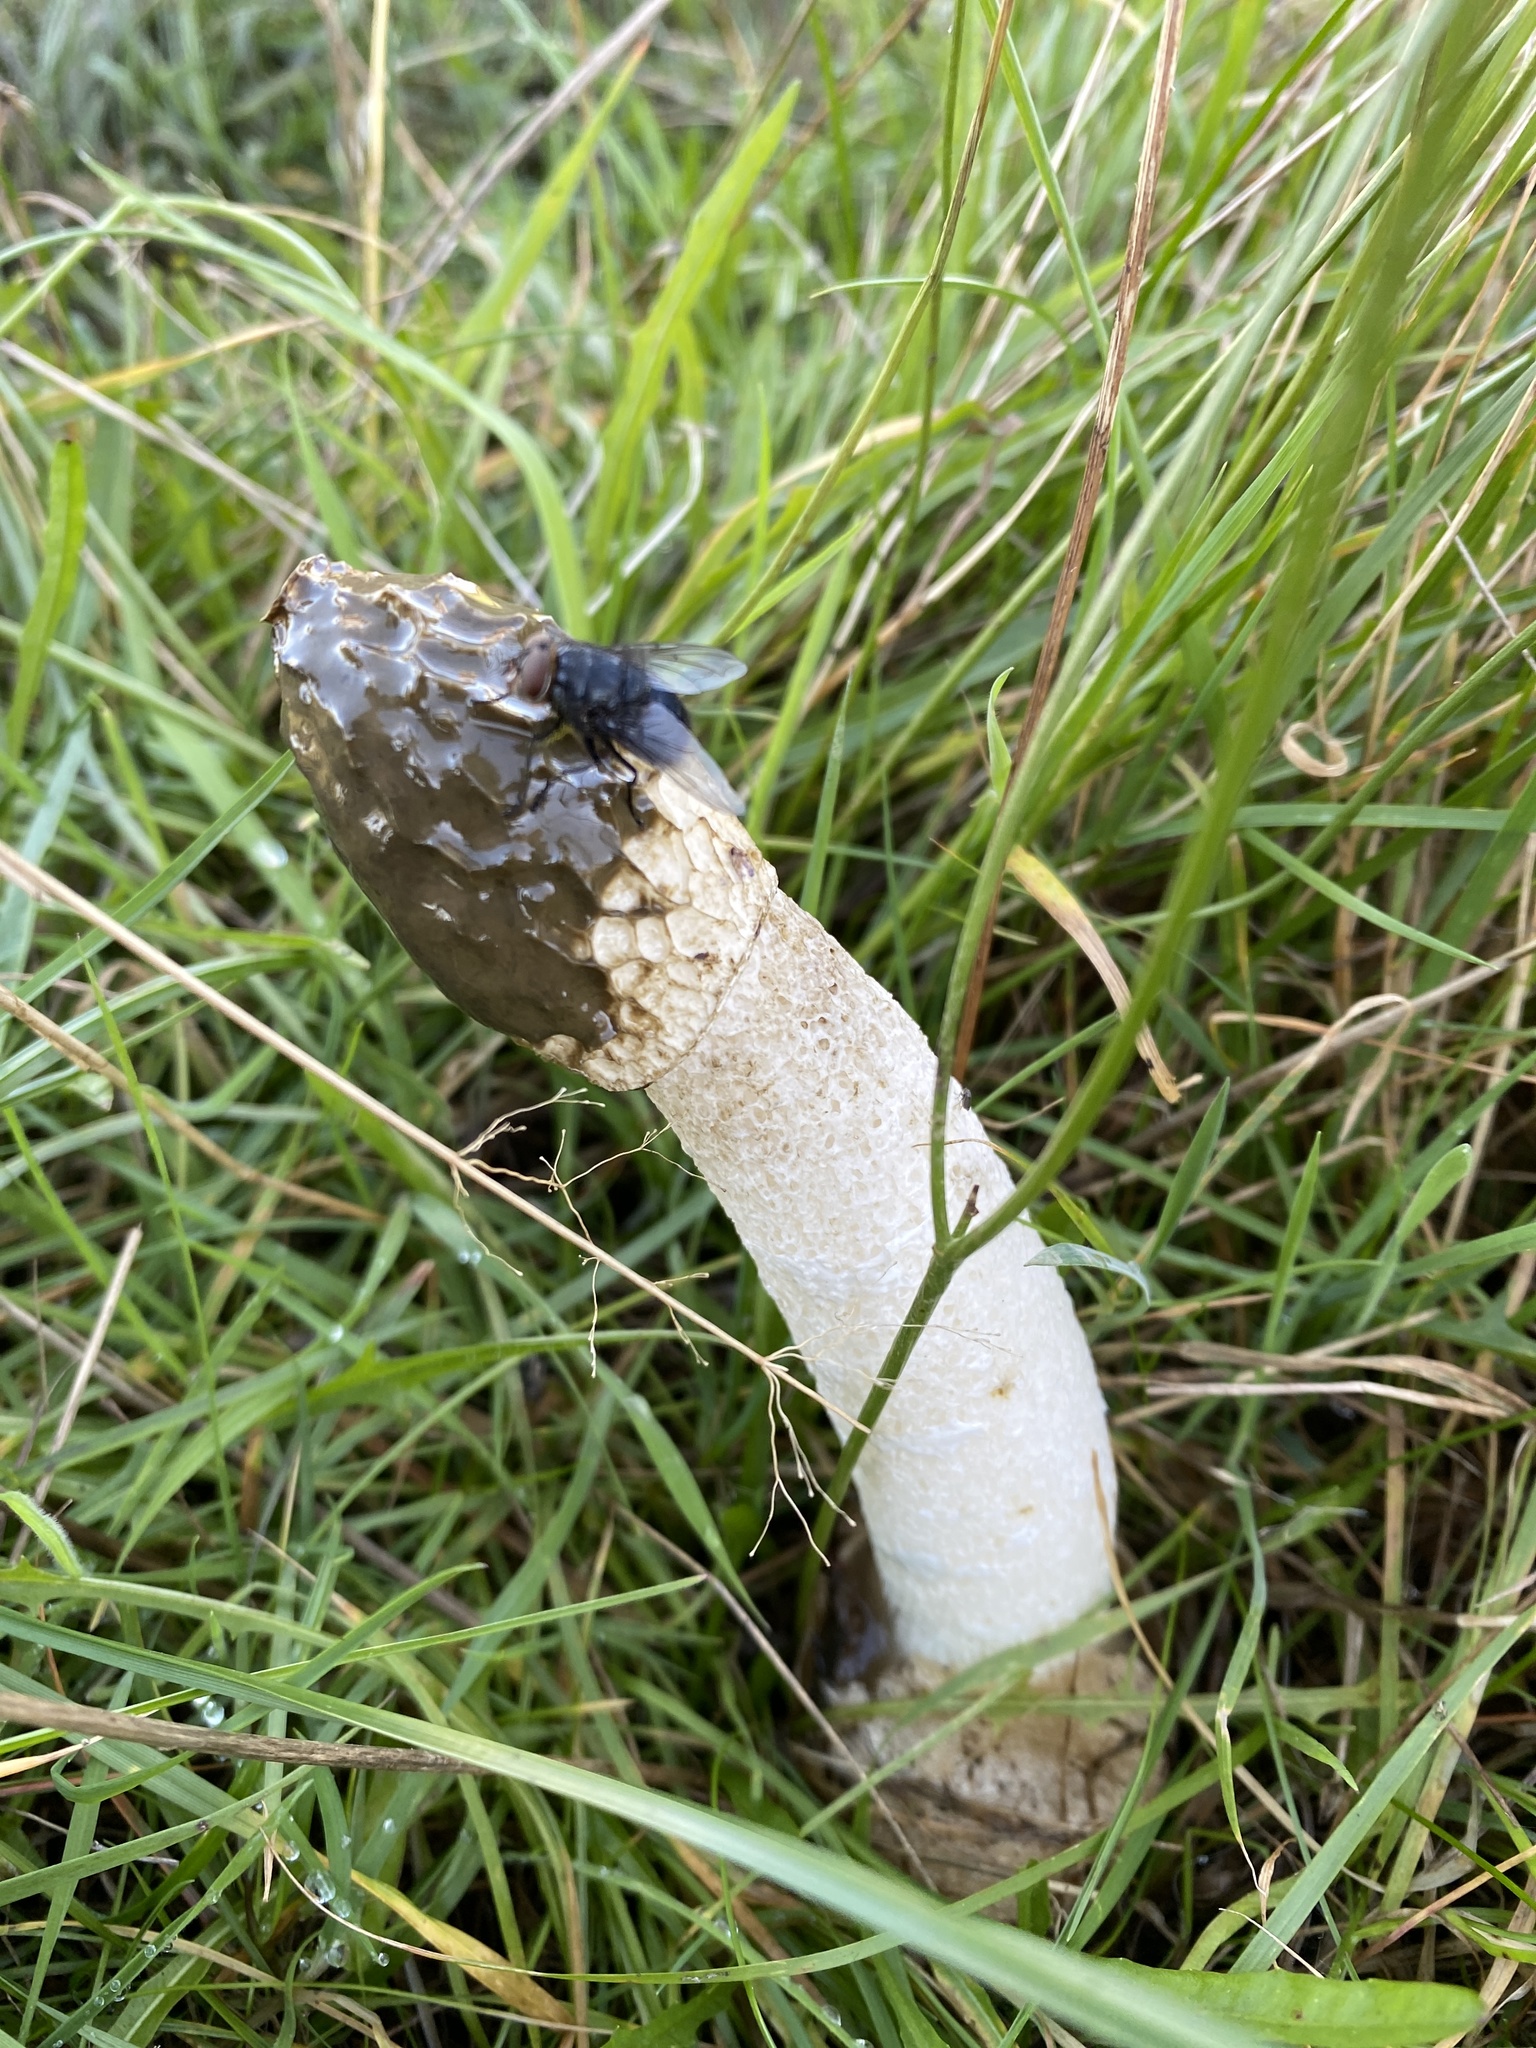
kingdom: Fungi
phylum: Basidiomycota
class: Agaricomycetes
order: Phallales
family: Phallaceae
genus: Phallus
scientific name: Phallus impudicus
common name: Common stinkhorn
